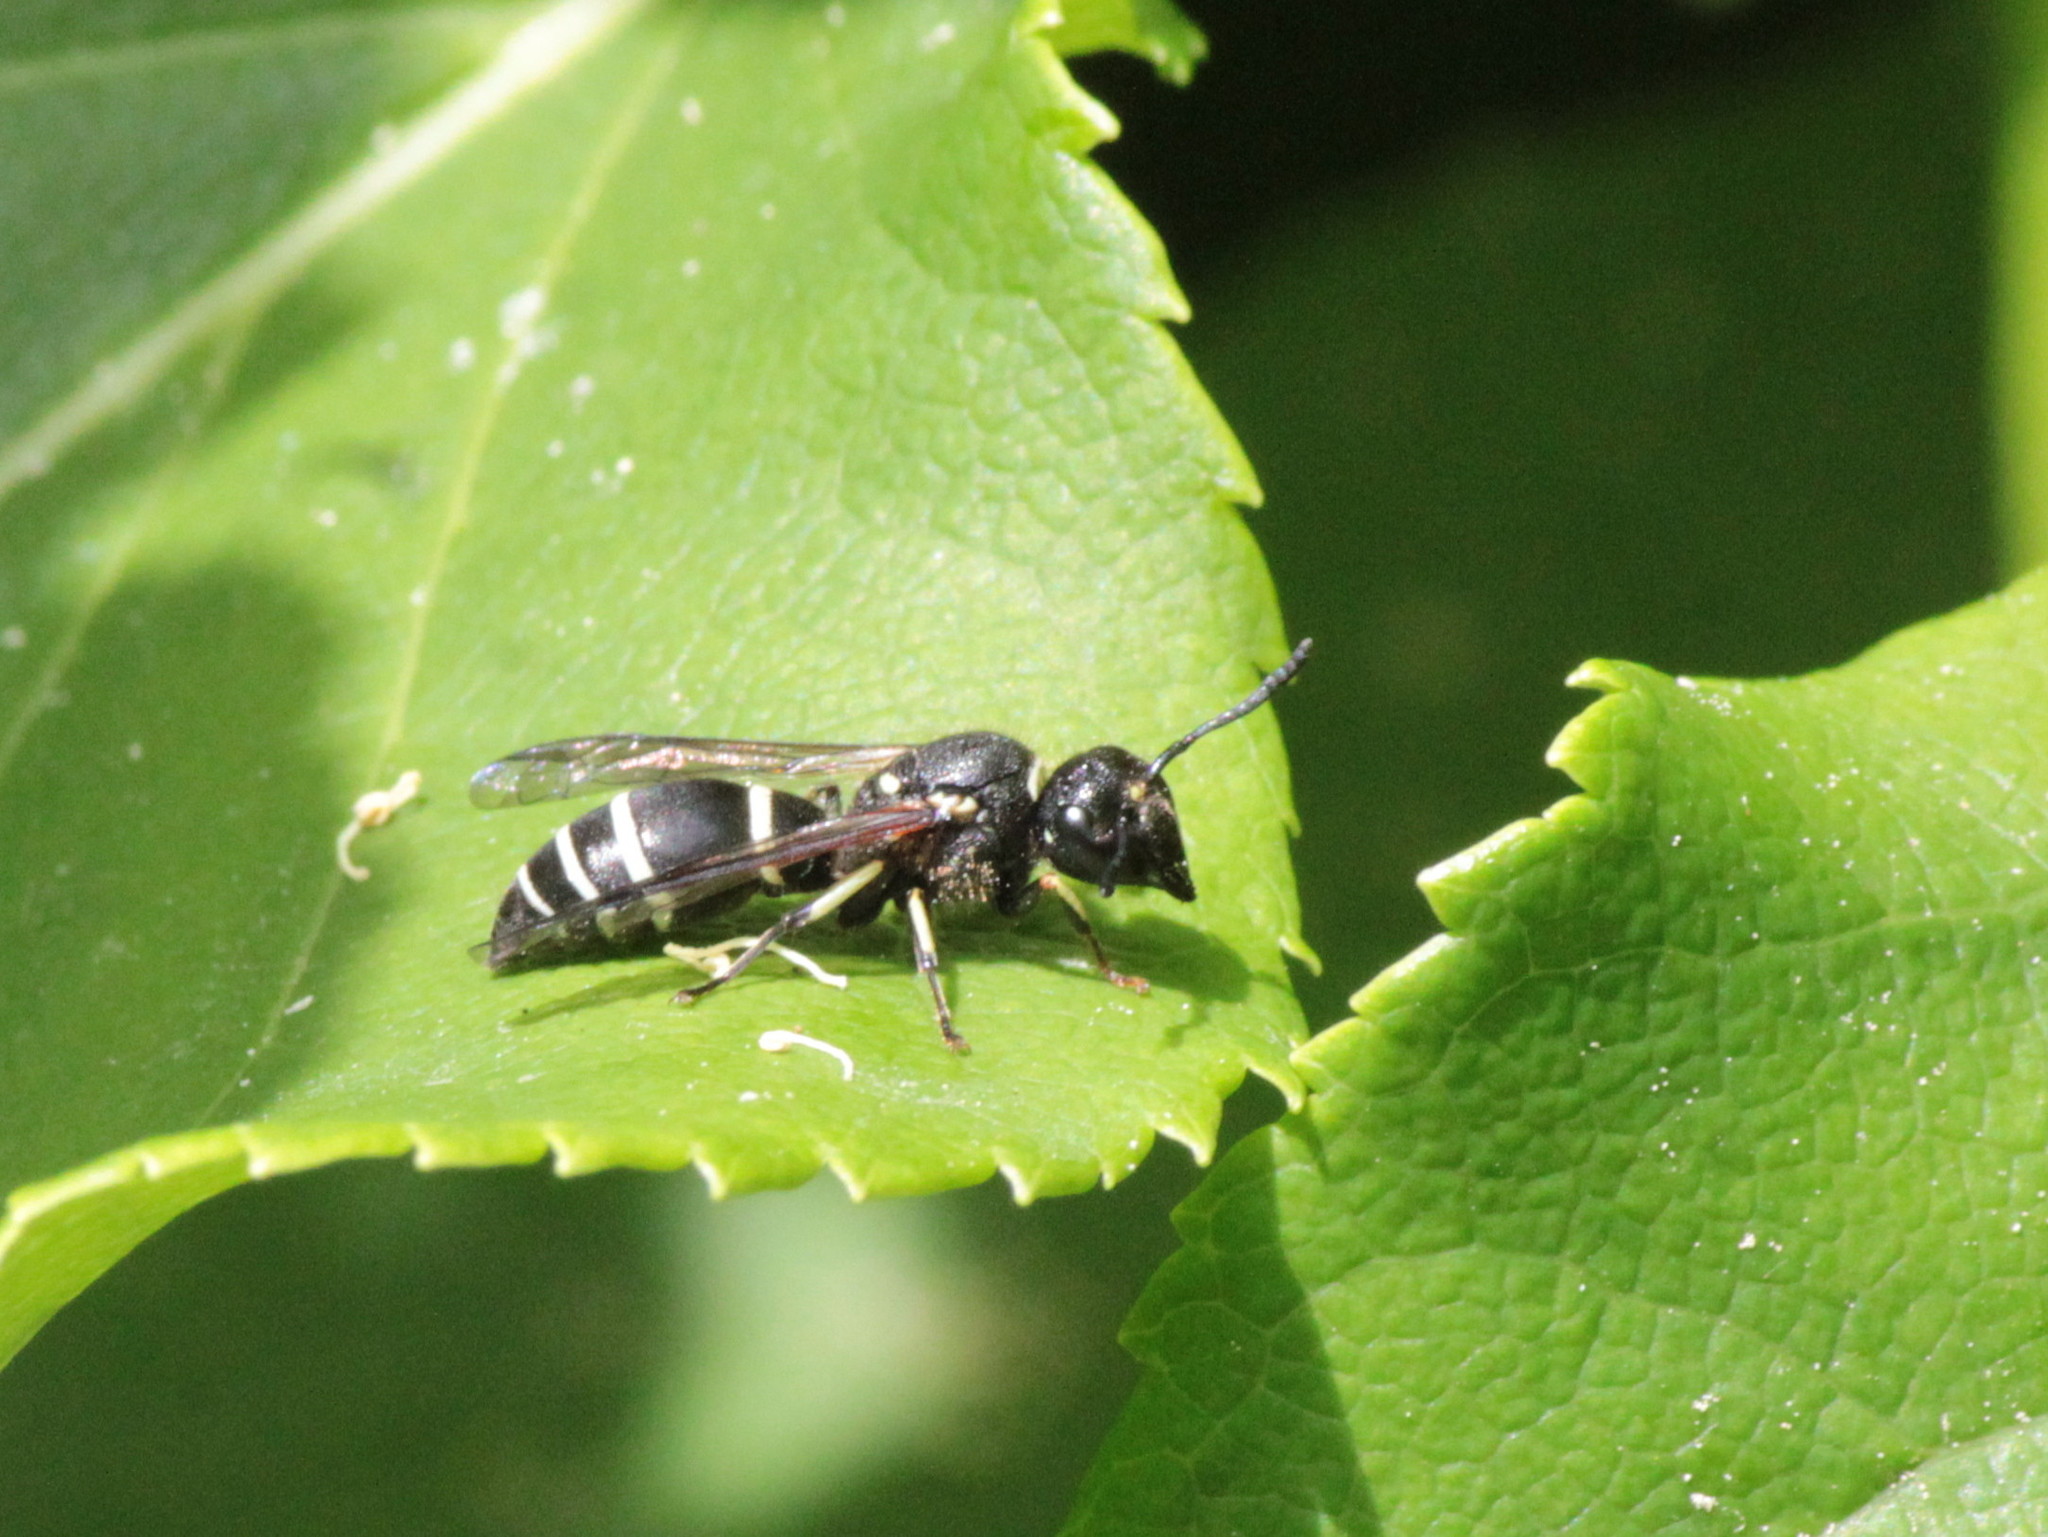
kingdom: Animalia
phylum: Arthropoda
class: Insecta
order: Hymenoptera
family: Vespidae
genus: Ancistrocerus
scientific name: Ancistrocerus albophaleratus
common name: White-banded potter wasp
